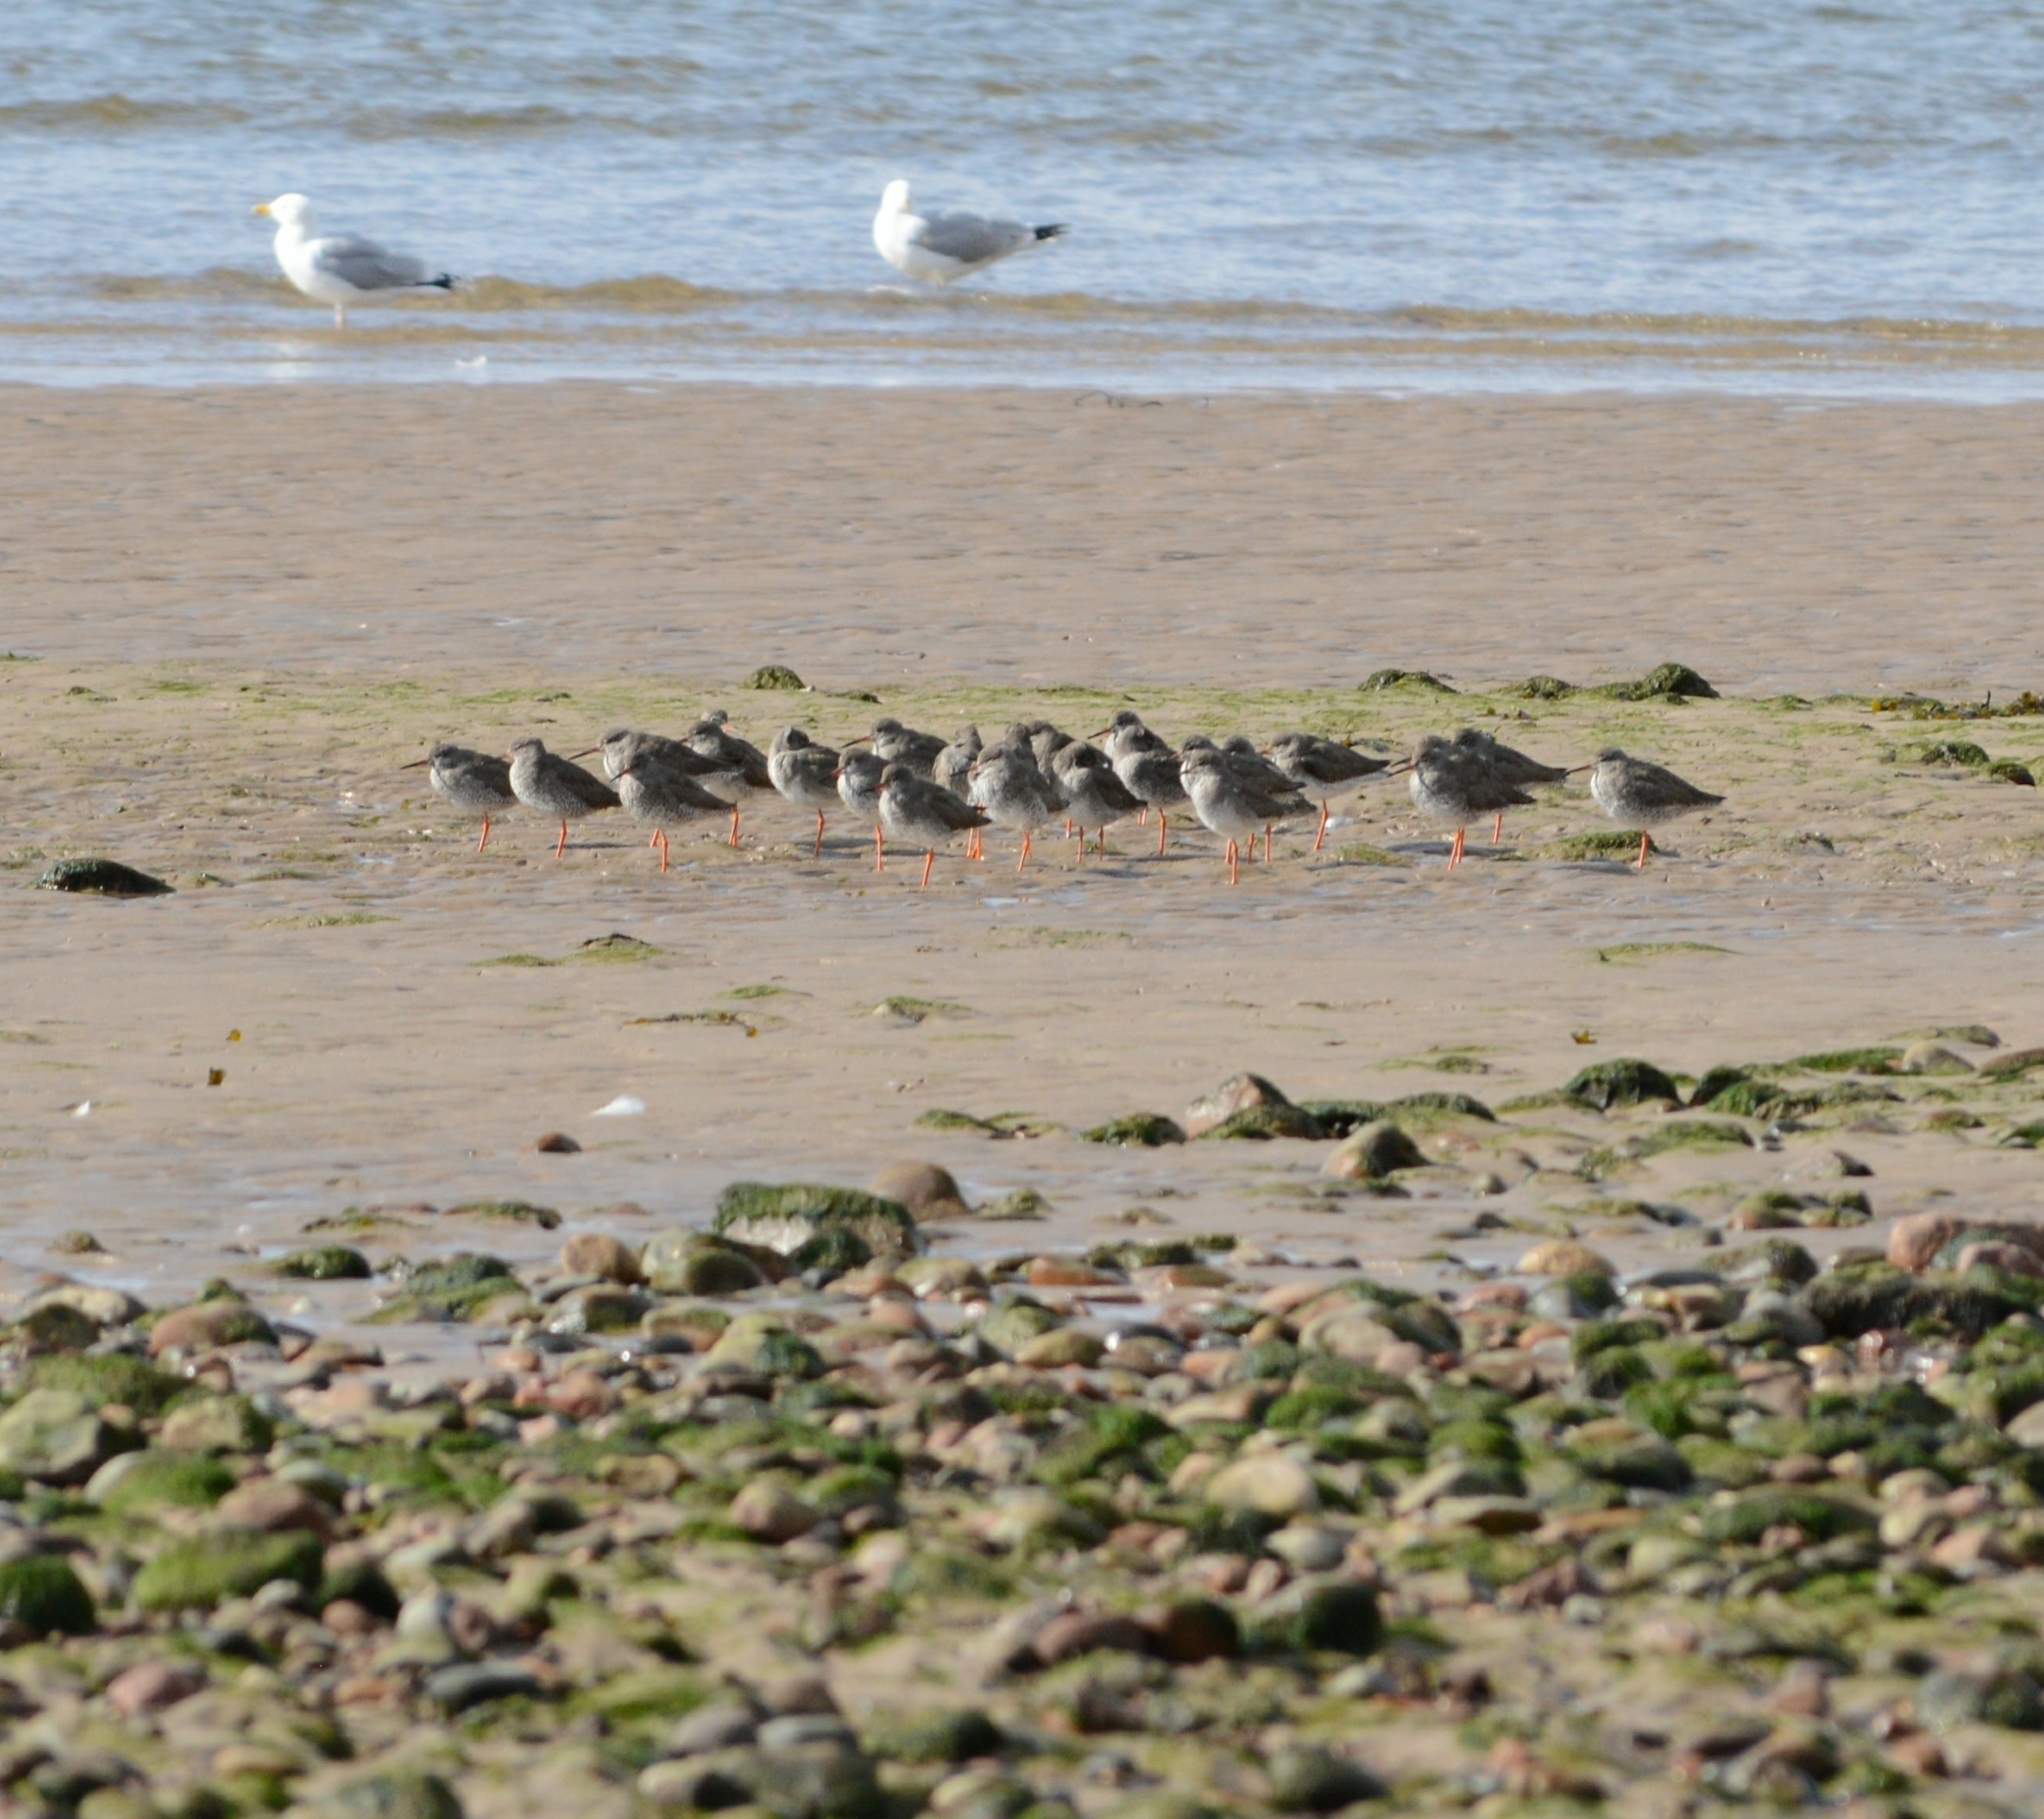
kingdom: Animalia
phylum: Chordata
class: Aves
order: Charadriiformes
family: Scolopacidae
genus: Tringa
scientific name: Tringa totanus
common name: Common redshank
